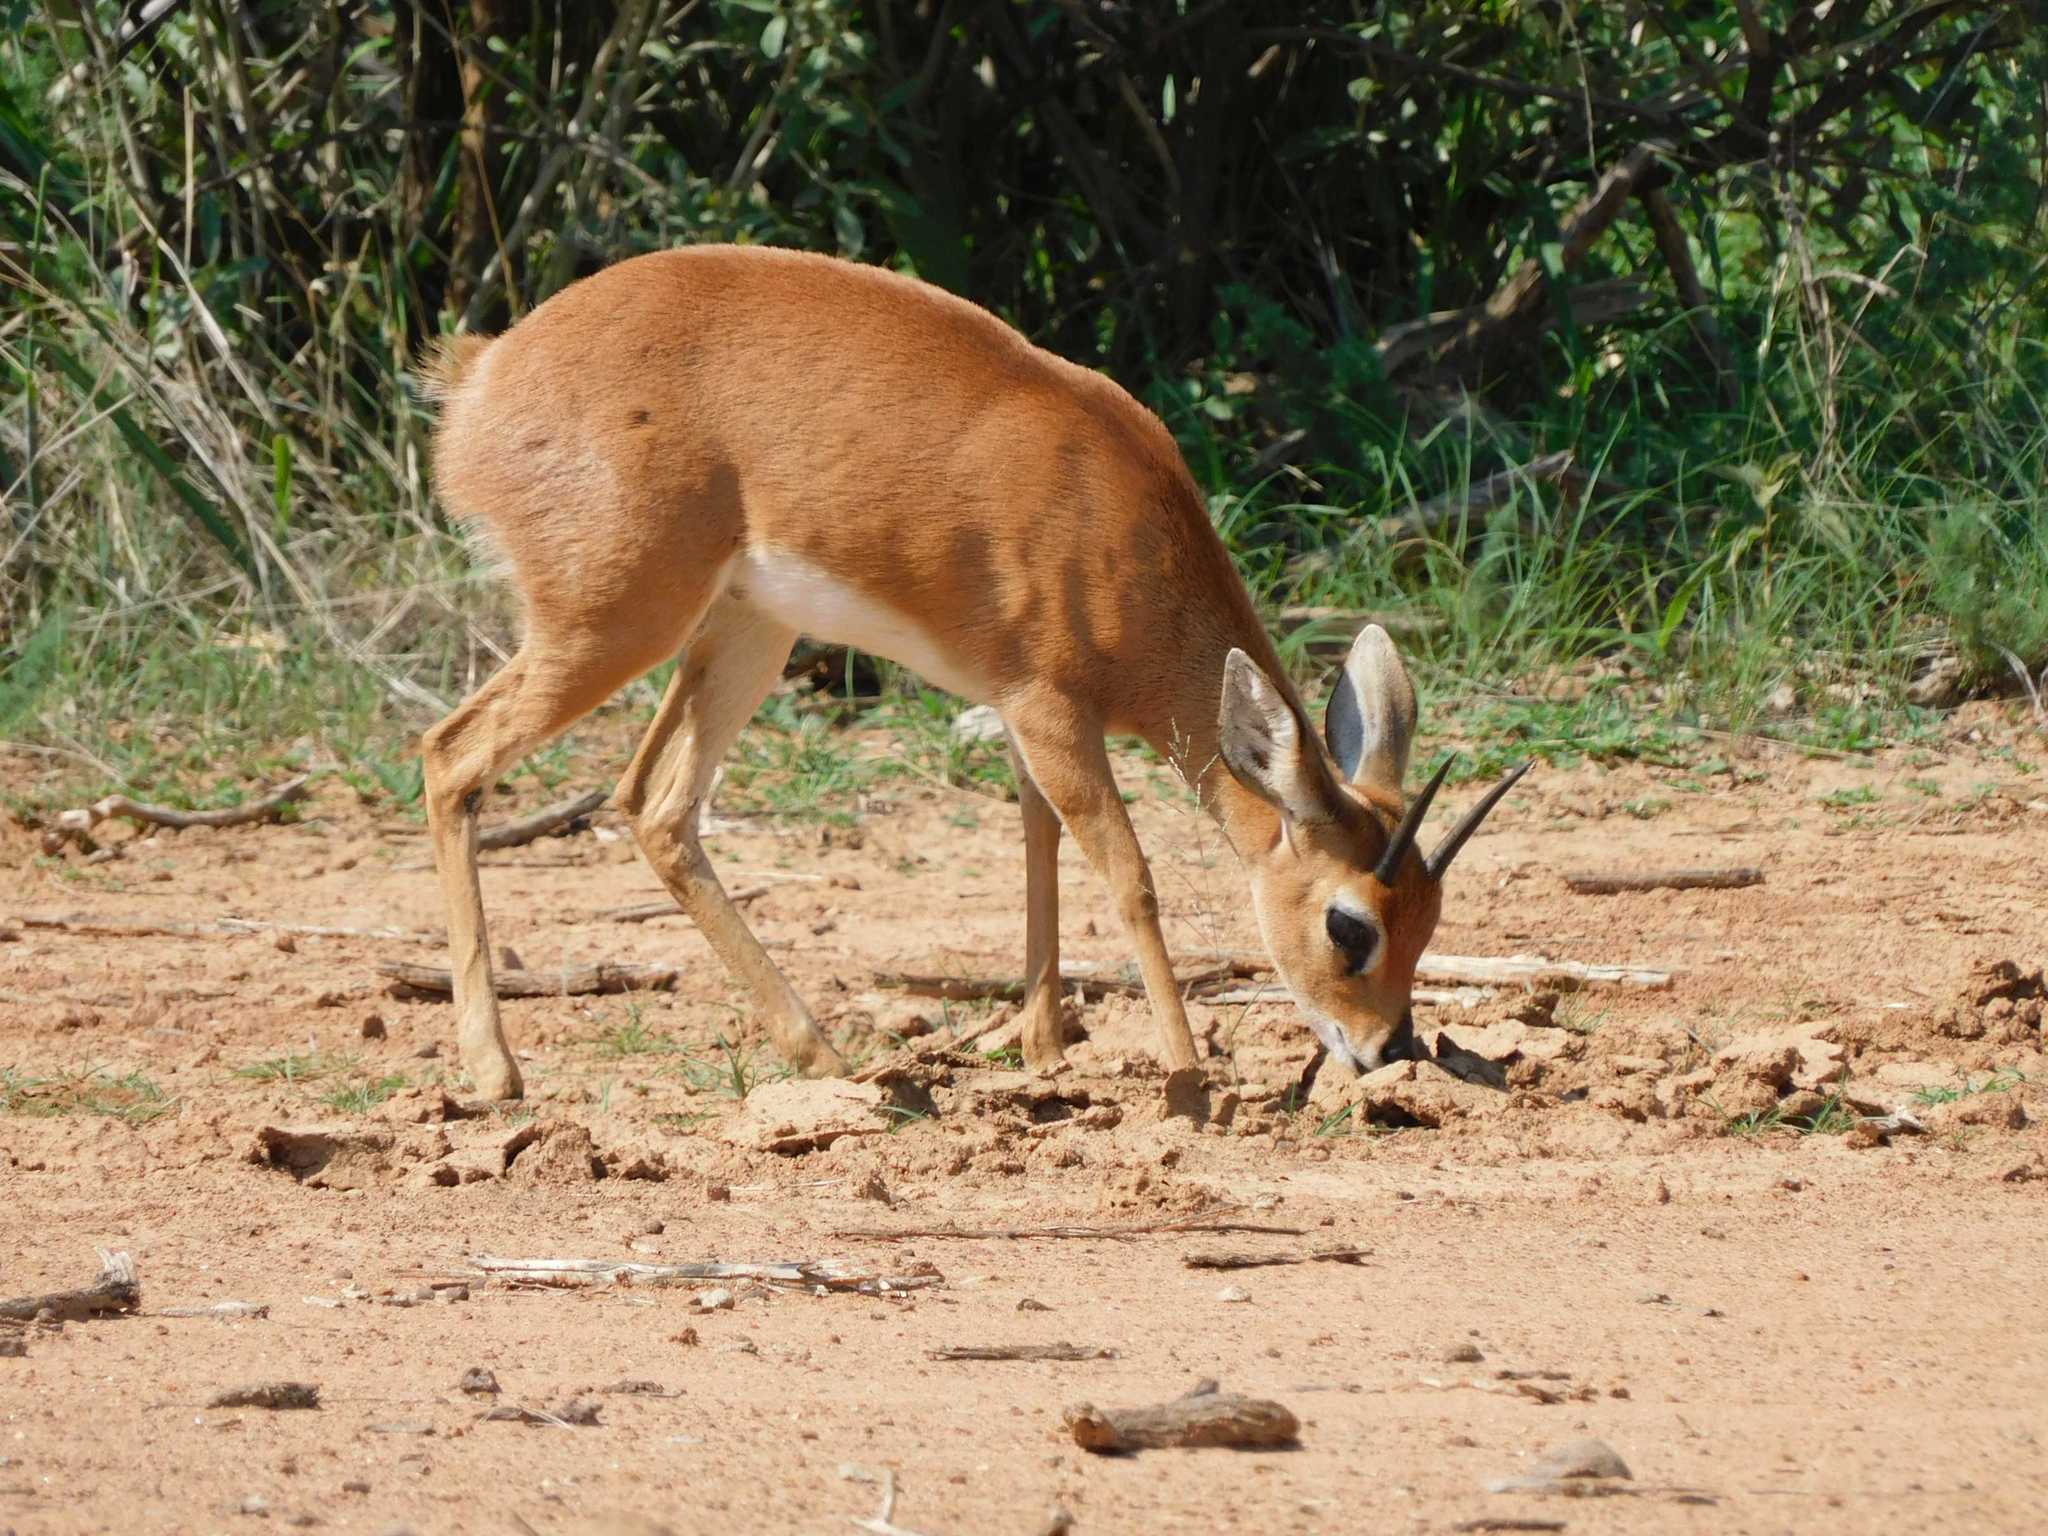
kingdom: Animalia
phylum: Chordata
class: Mammalia
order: Artiodactyla
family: Bovidae
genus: Raphicerus
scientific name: Raphicerus campestris
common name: Steenbok
